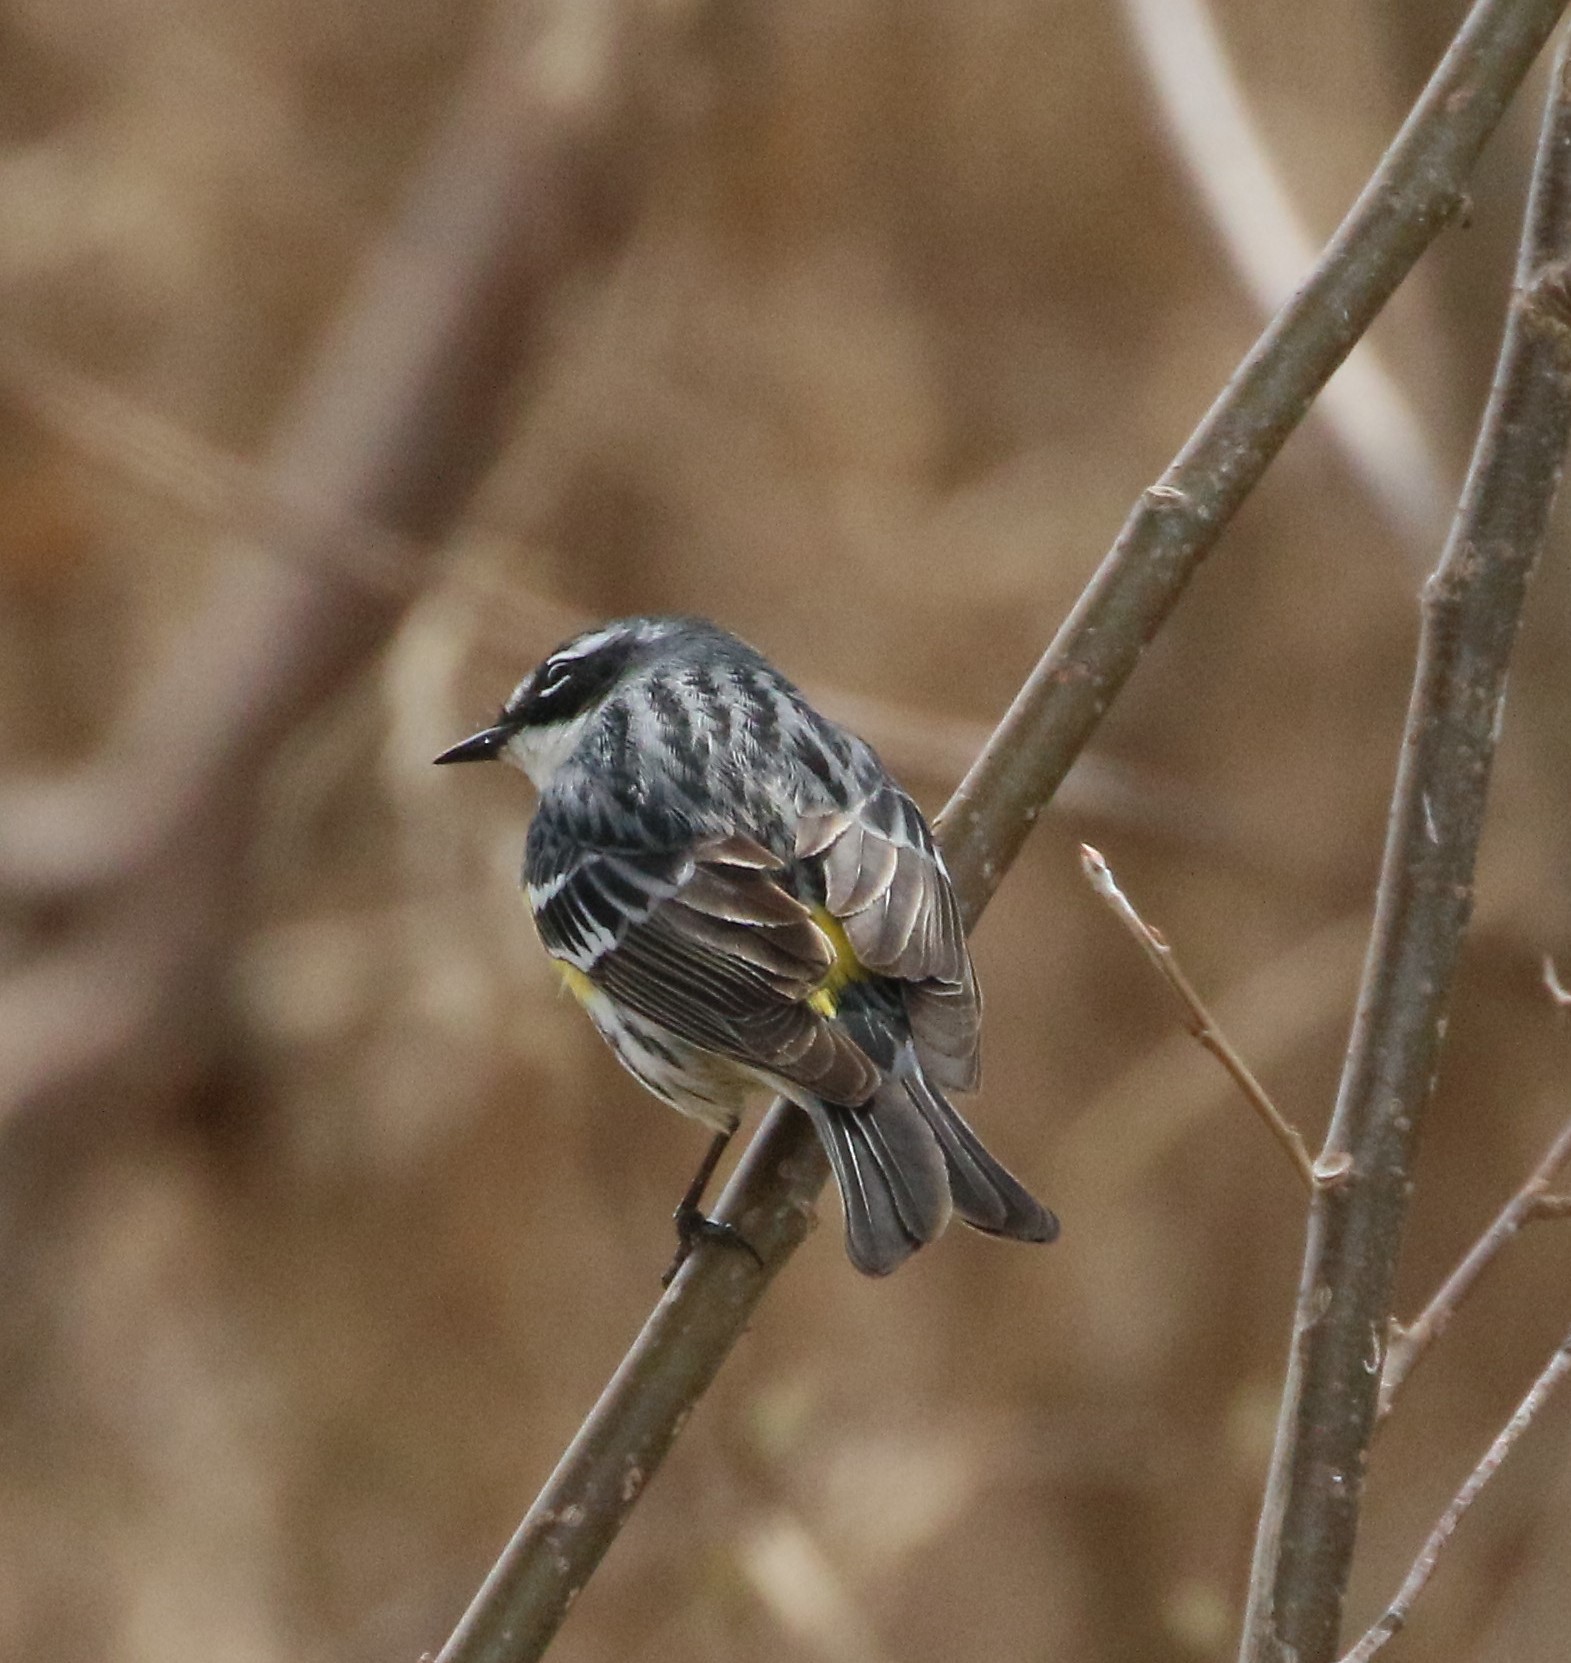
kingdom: Animalia
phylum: Chordata
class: Aves
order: Passeriformes
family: Parulidae
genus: Setophaga
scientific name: Setophaga coronata
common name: Myrtle warbler
